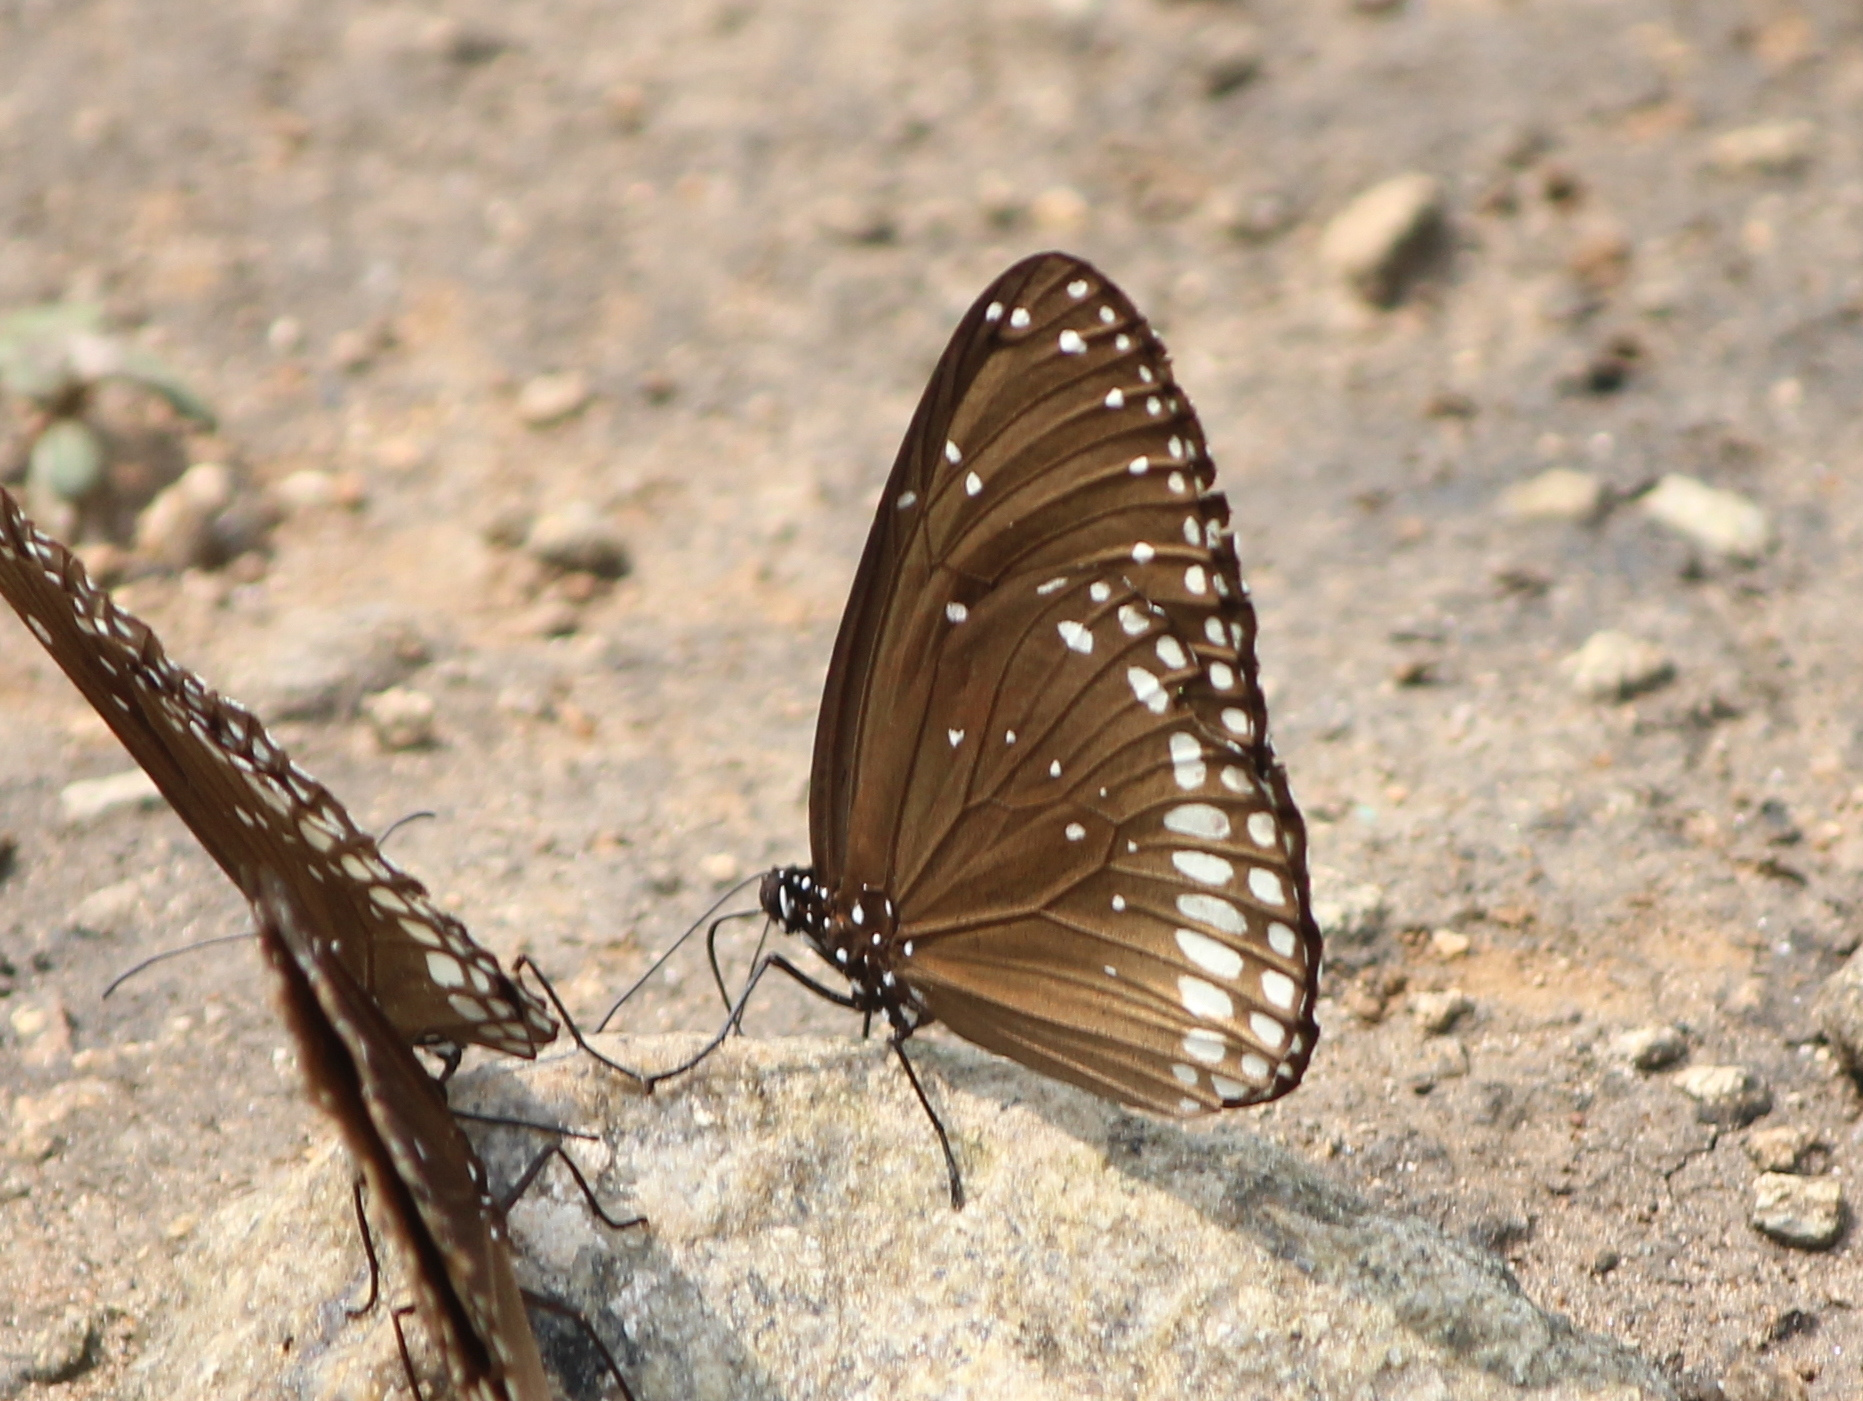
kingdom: Animalia
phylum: Arthropoda
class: Insecta
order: Lepidoptera
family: Nymphalidae
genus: Euploea
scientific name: Euploea sylvester
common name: Double-branded crow butterfly
